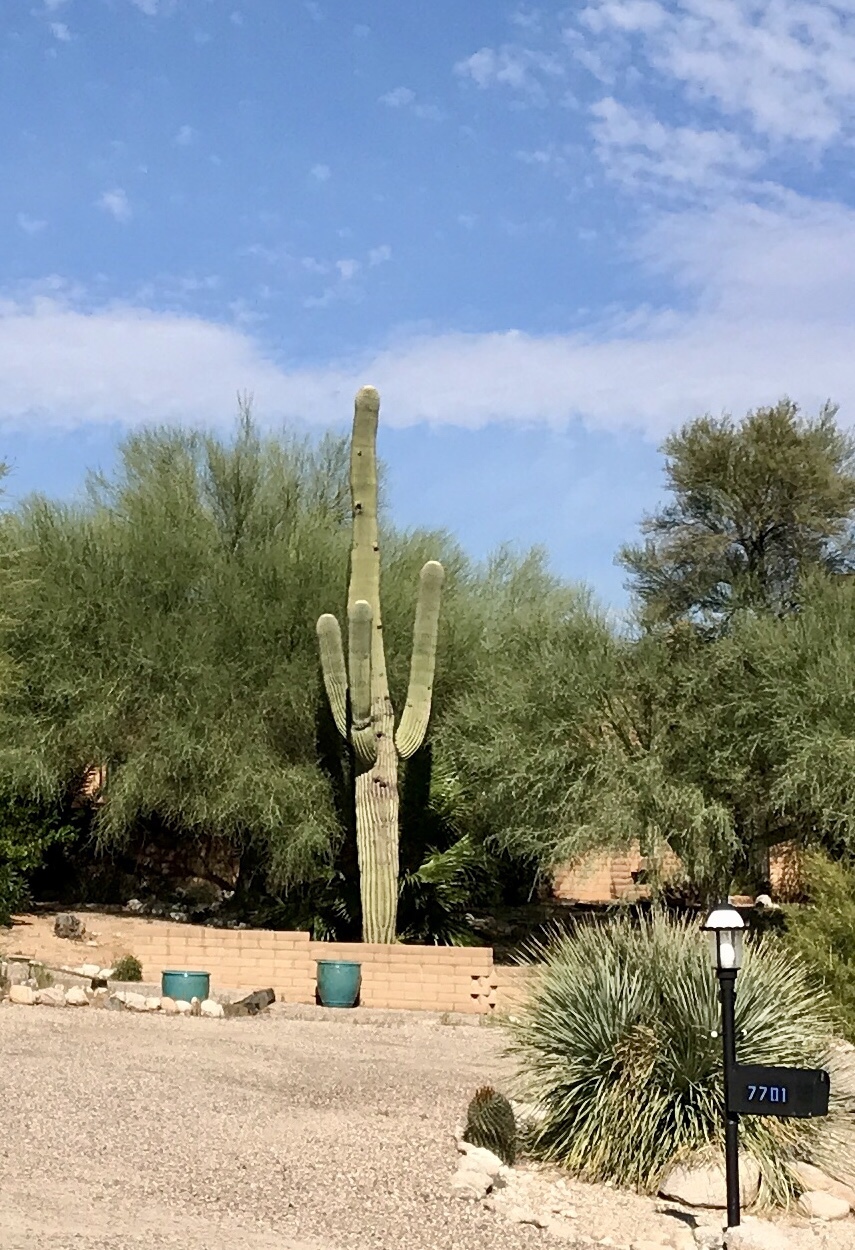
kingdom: Plantae
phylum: Tracheophyta
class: Magnoliopsida
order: Caryophyllales
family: Cactaceae
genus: Carnegiea
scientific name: Carnegiea gigantea
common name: Saguaro
